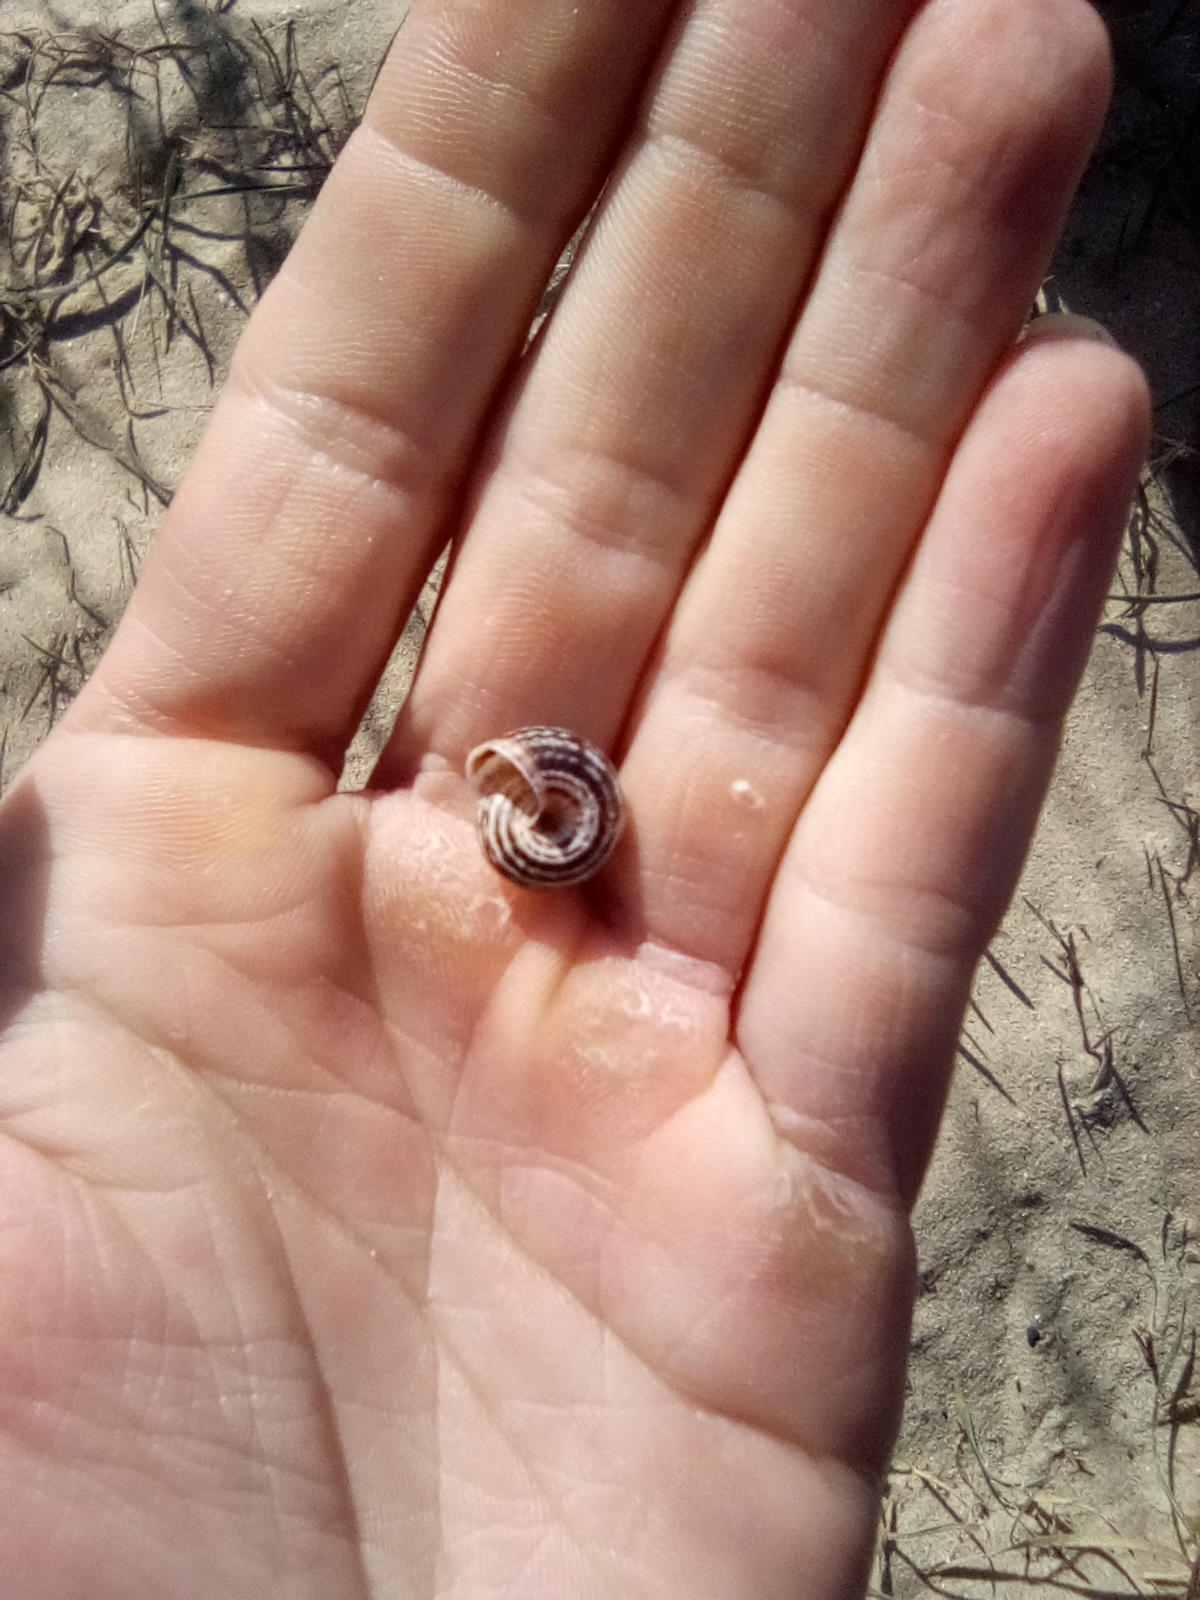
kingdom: Animalia
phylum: Mollusca
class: Gastropoda
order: Stylommatophora
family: Geomitridae
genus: Xeropicta
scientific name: Xeropicta krynickii
